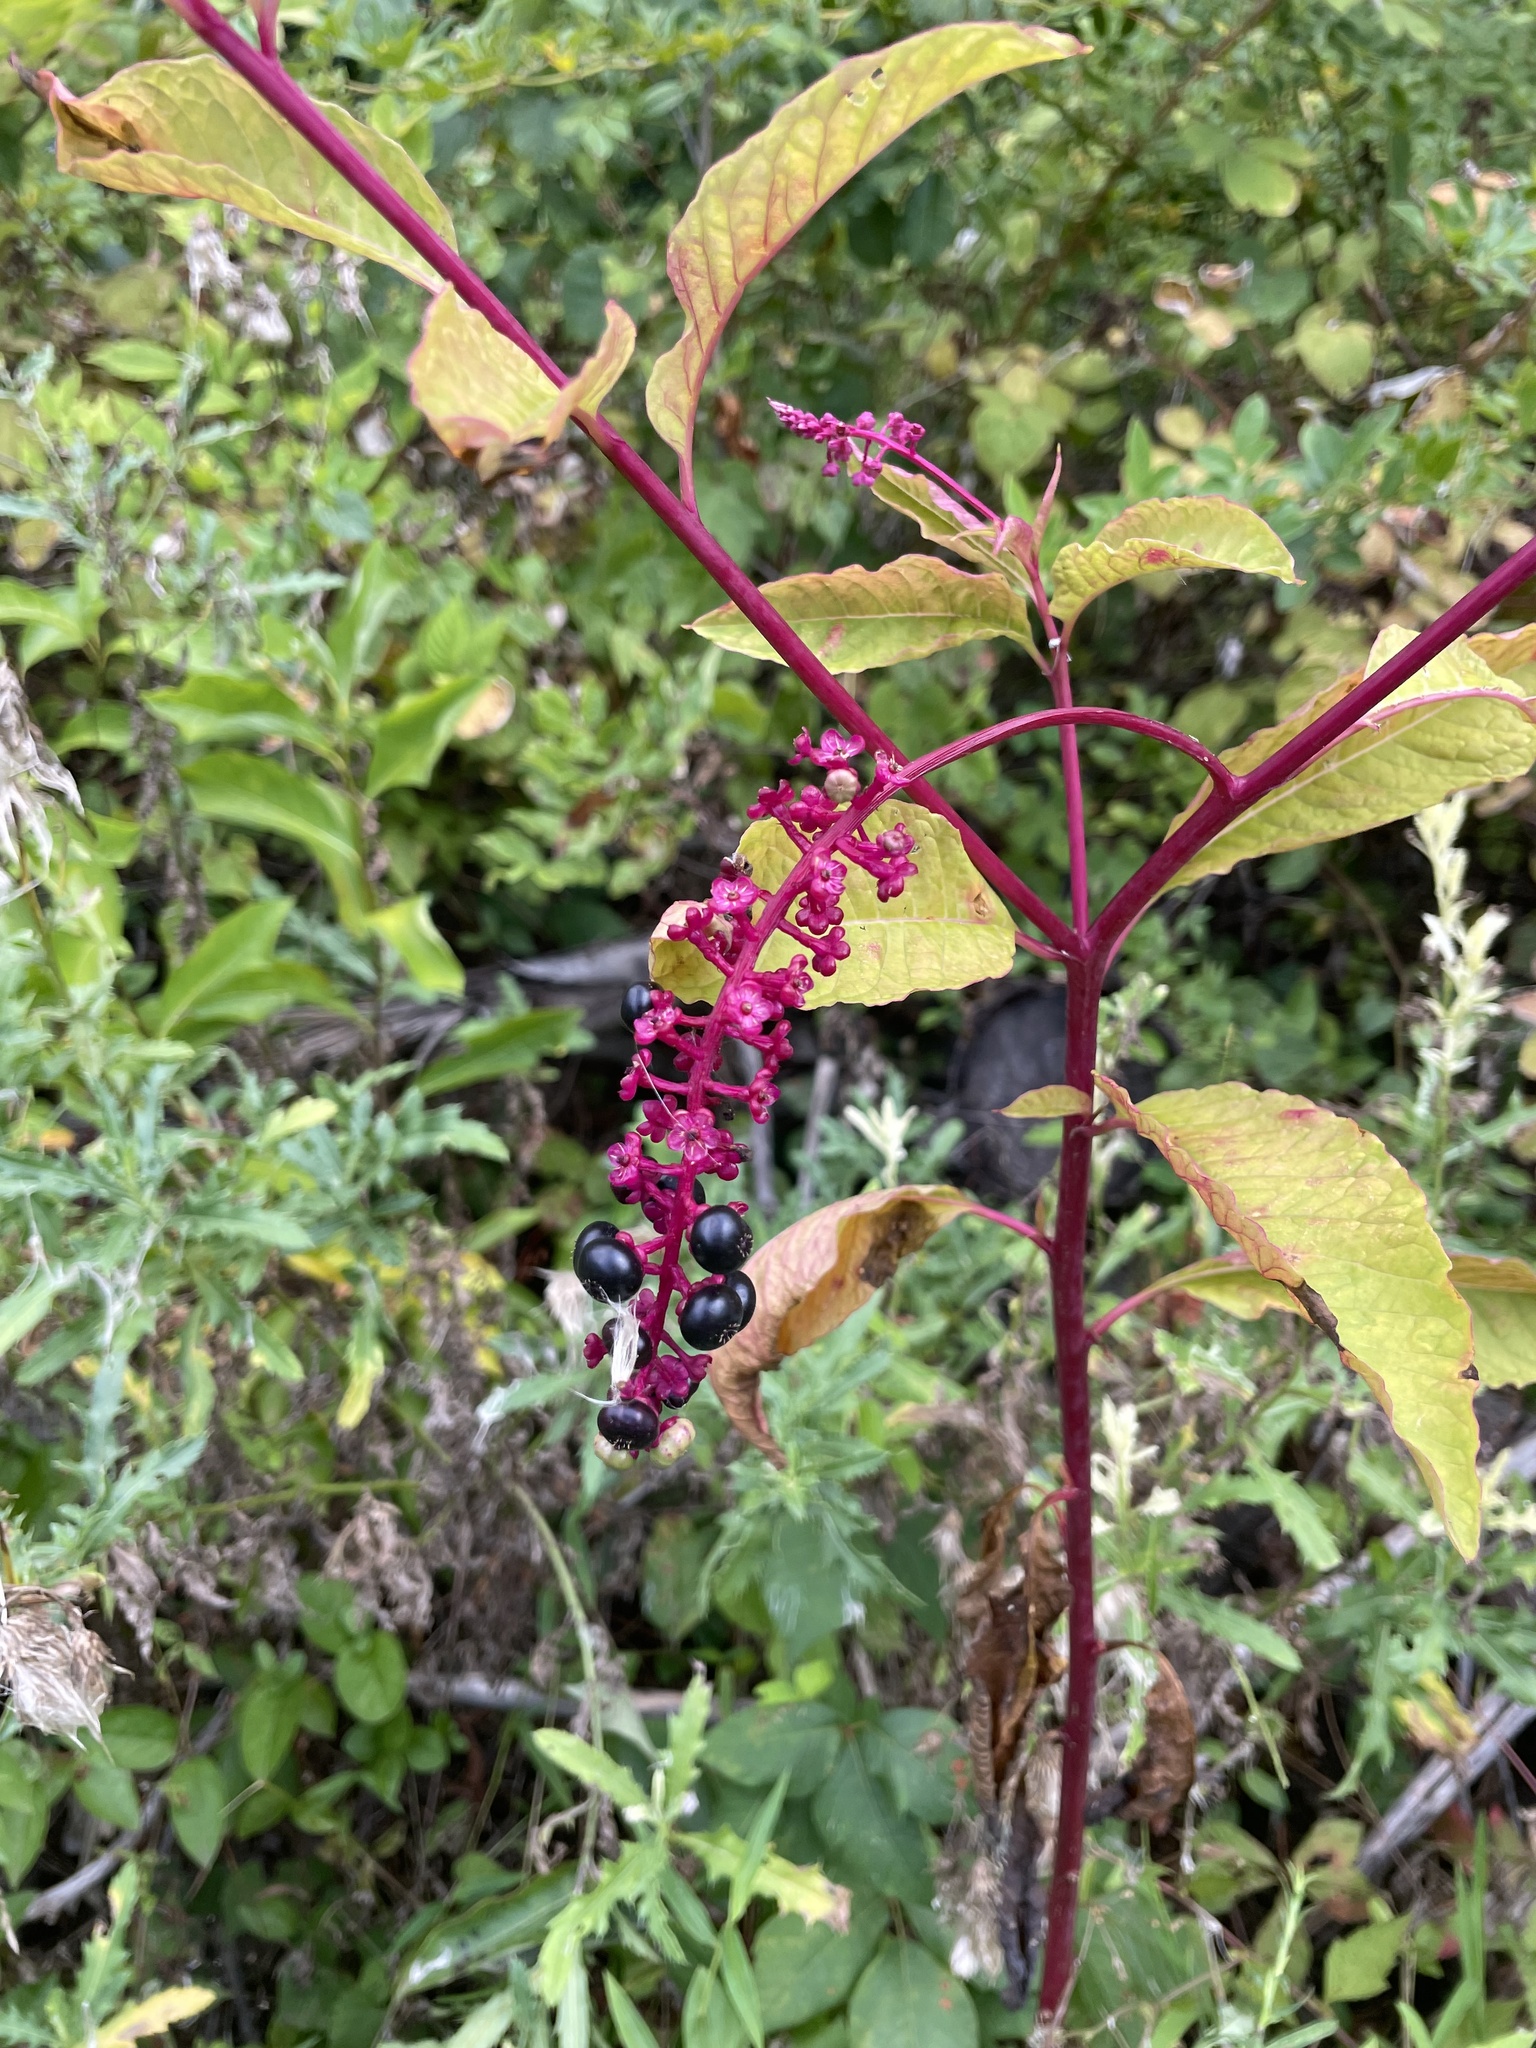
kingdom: Plantae
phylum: Tracheophyta
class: Magnoliopsida
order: Caryophyllales
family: Phytolaccaceae
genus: Phytolacca
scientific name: Phytolacca americana
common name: American pokeweed
